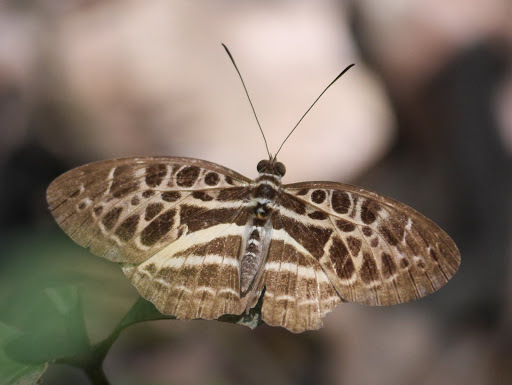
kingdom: Animalia
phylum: Arthropoda
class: Insecta
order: Lepidoptera
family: Nymphalidae
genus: Catuna
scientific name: Catuna
